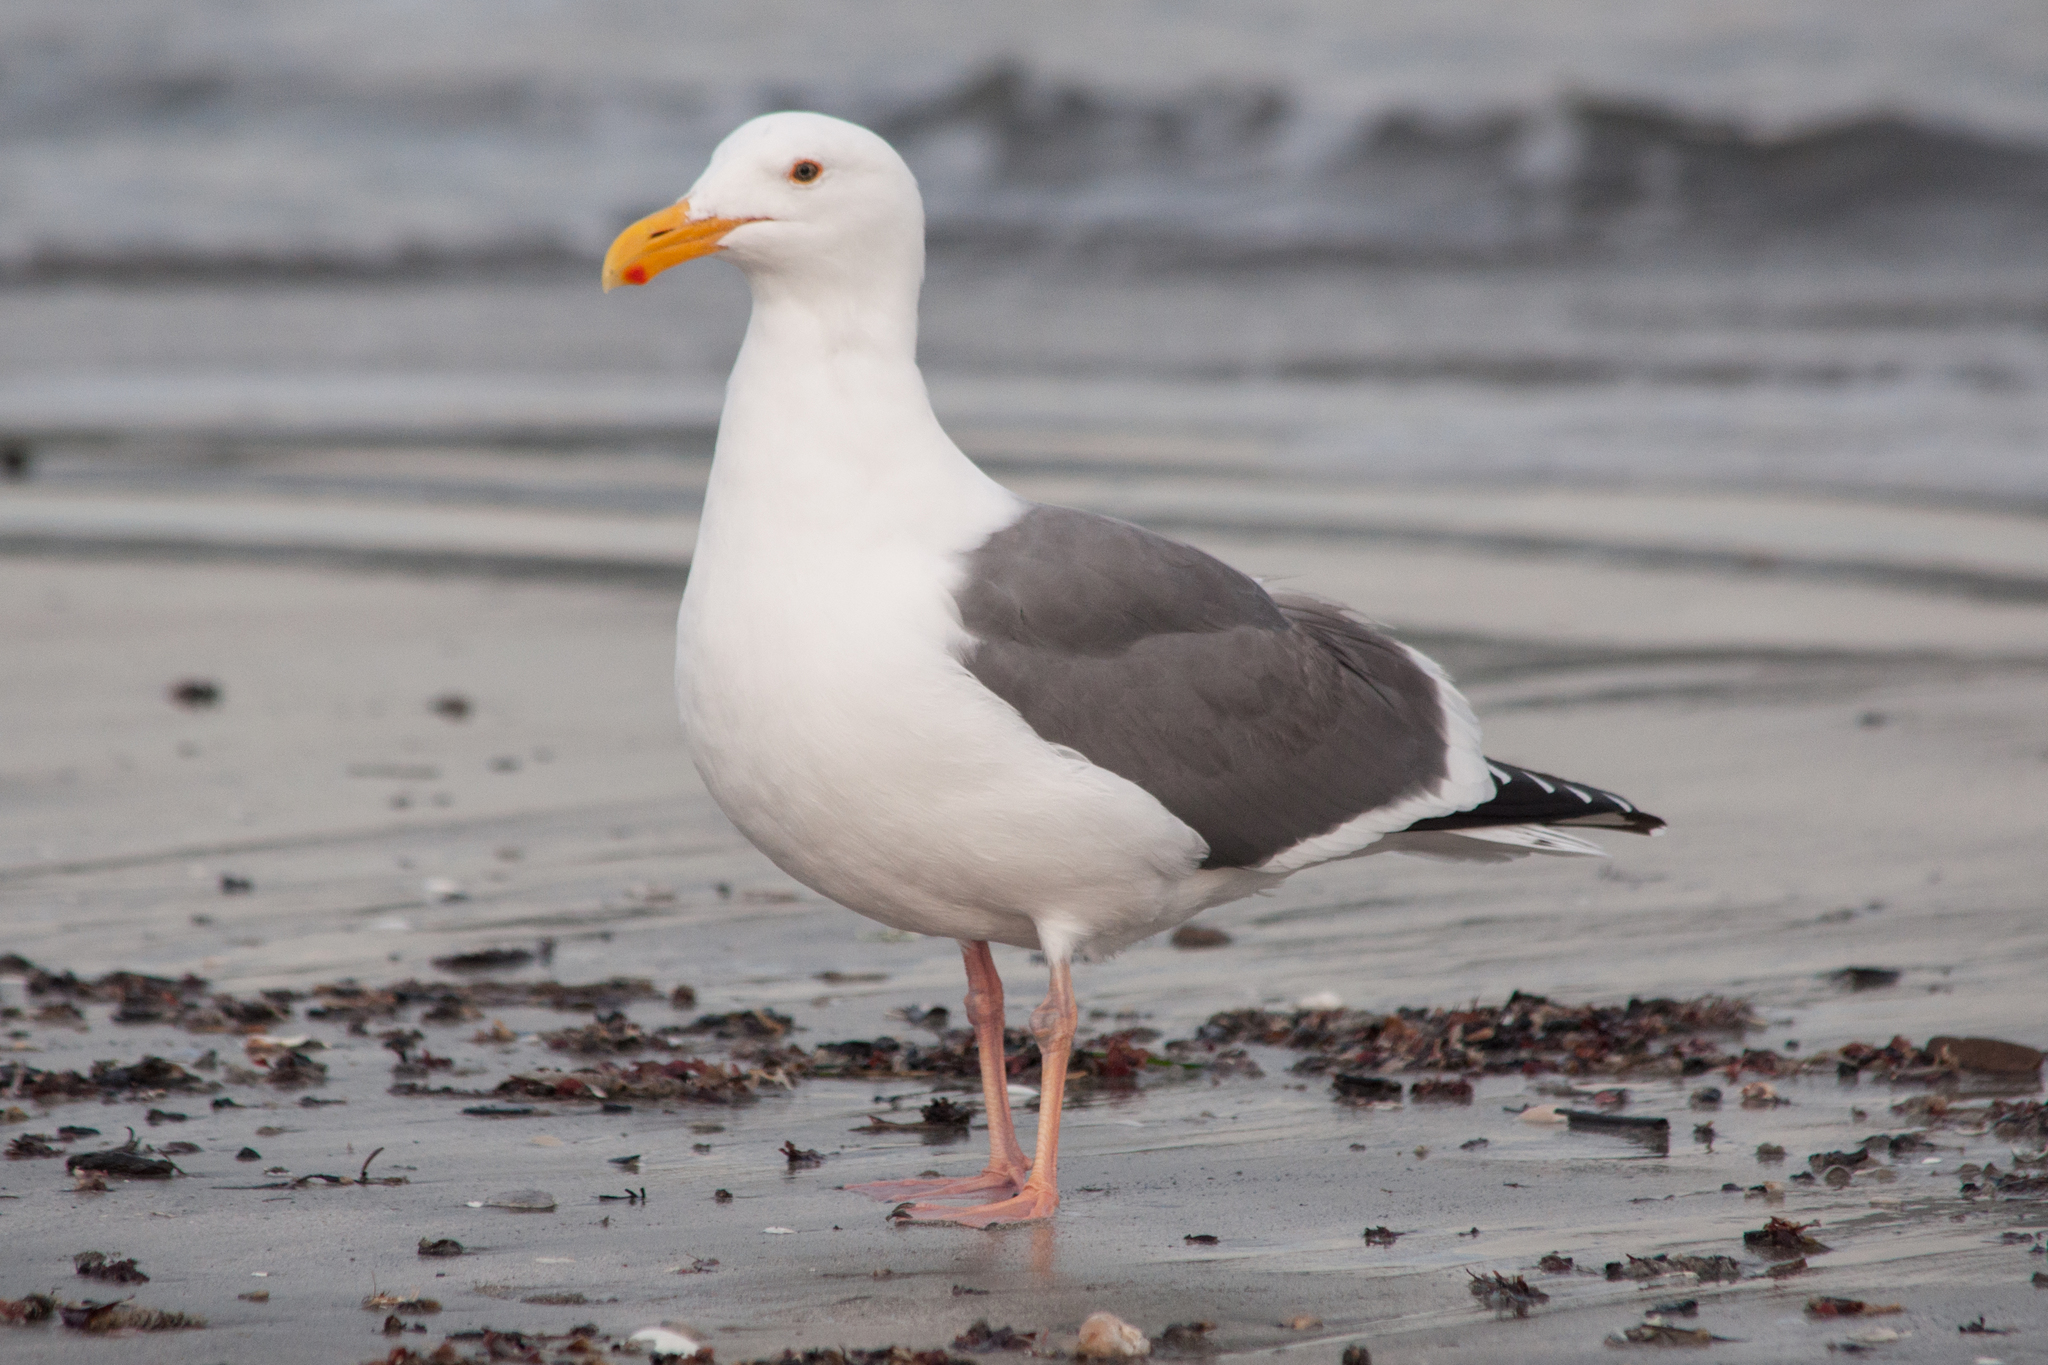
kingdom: Animalia
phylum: Chordata
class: Aves
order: Charadriiformes
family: Laridae
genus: Larus
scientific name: Larus occidentalis
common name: Western gull
